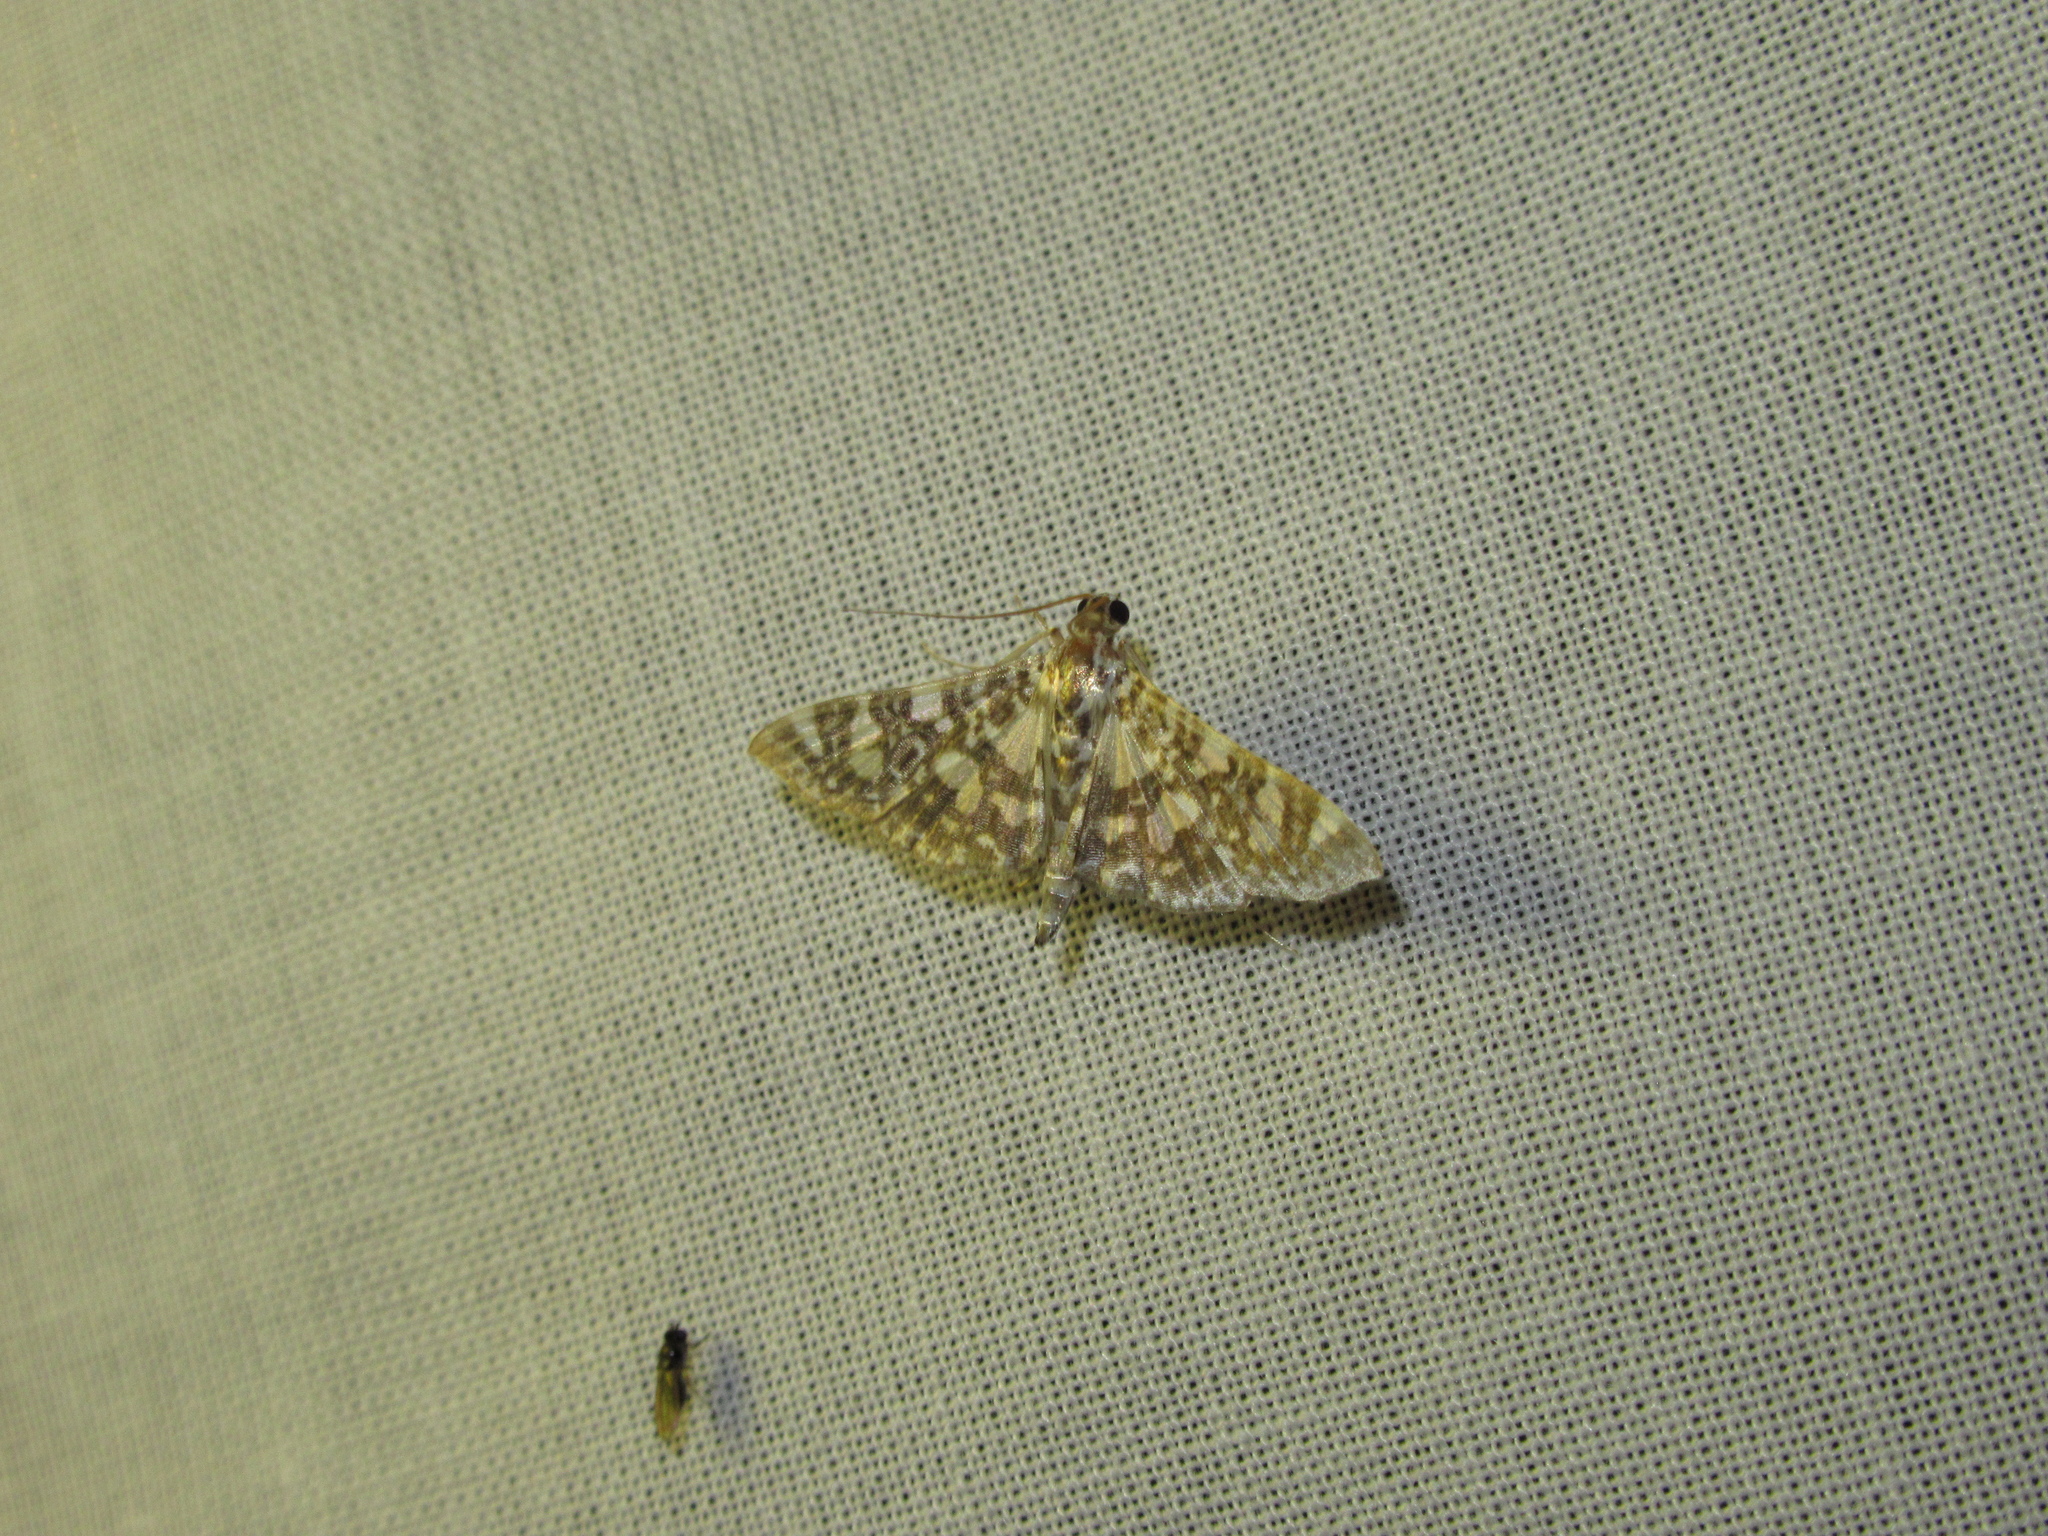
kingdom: Animalia
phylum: Arthropoda
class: Insecta
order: Lepidoptera
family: Crambidae
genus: Glyphodes
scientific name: Glyphodes onychinalis
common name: Swan plant moth
